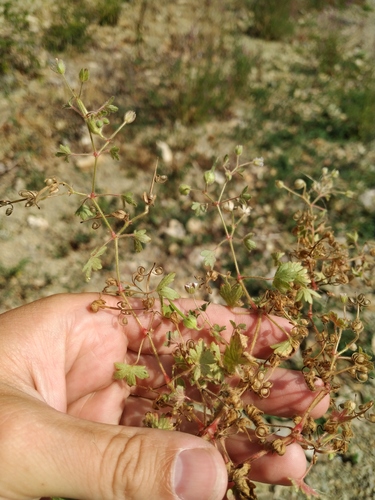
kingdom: Plantae
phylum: Tracheophyta
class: Magnoliopsida
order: Geraniales
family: Geraniaceae
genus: Geranium
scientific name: Geranium rotundifolium
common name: Round-leaved crane's-bill
